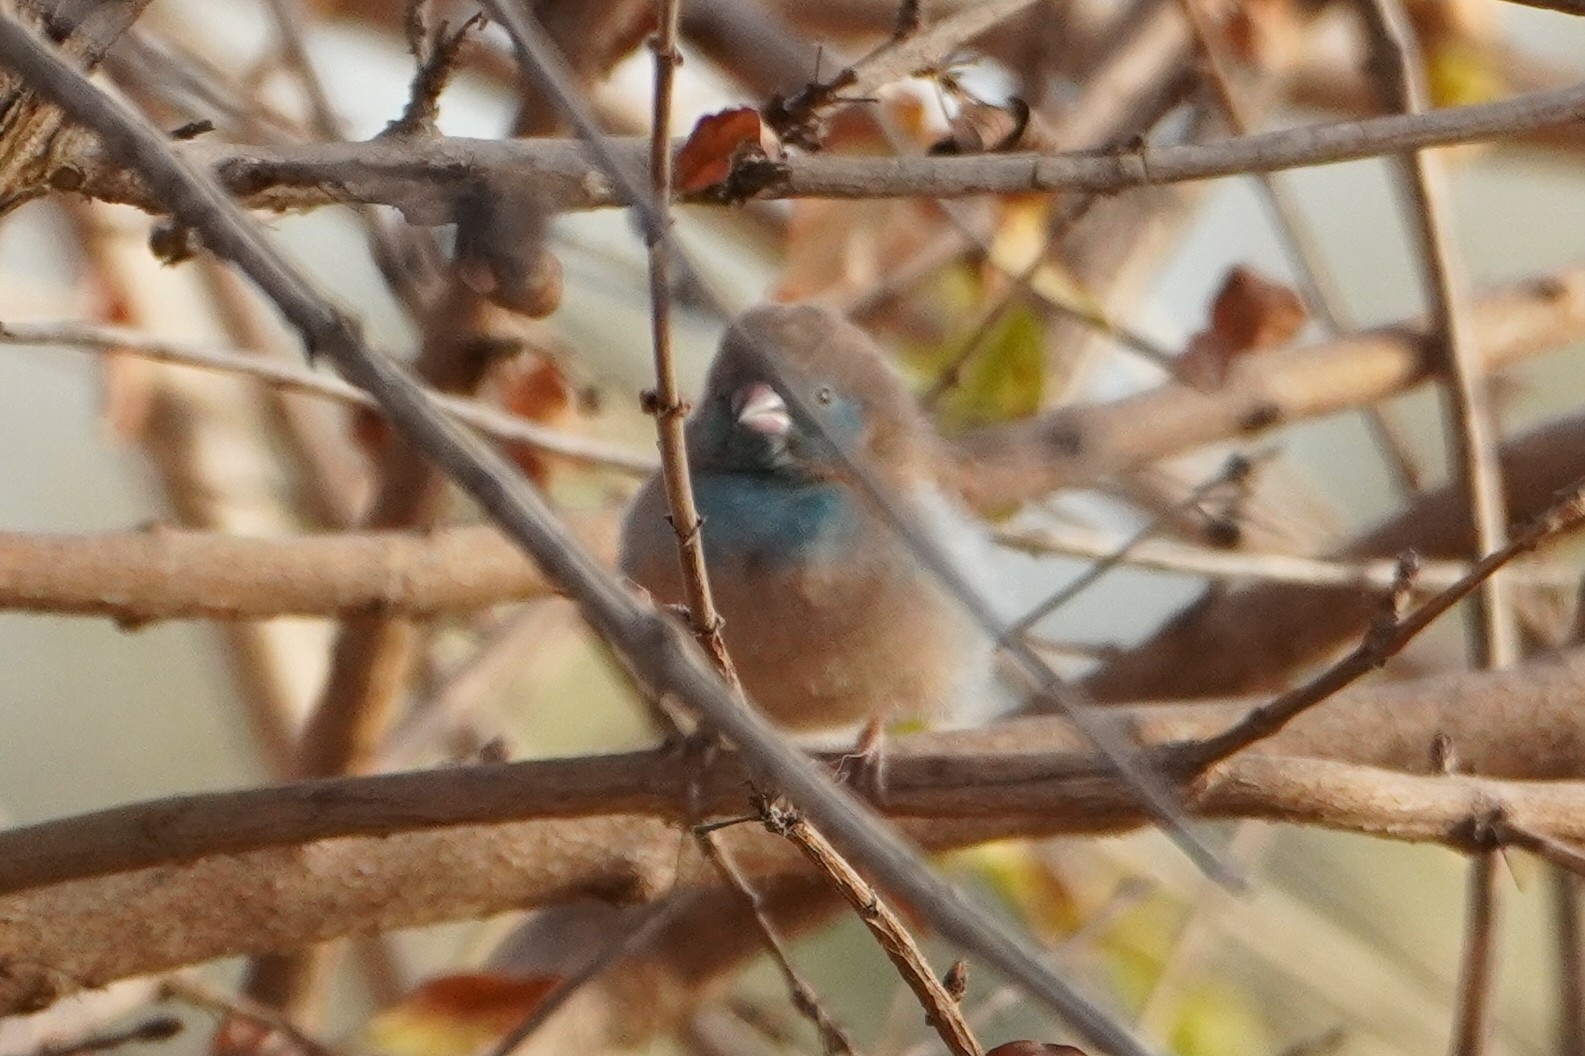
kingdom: Animalia
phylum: Chordata
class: Aves
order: Passeriformes
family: Estrildidae
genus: Uraeginthus
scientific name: Uraeginthus bengalus
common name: Red-cheeked cordon-bleu
